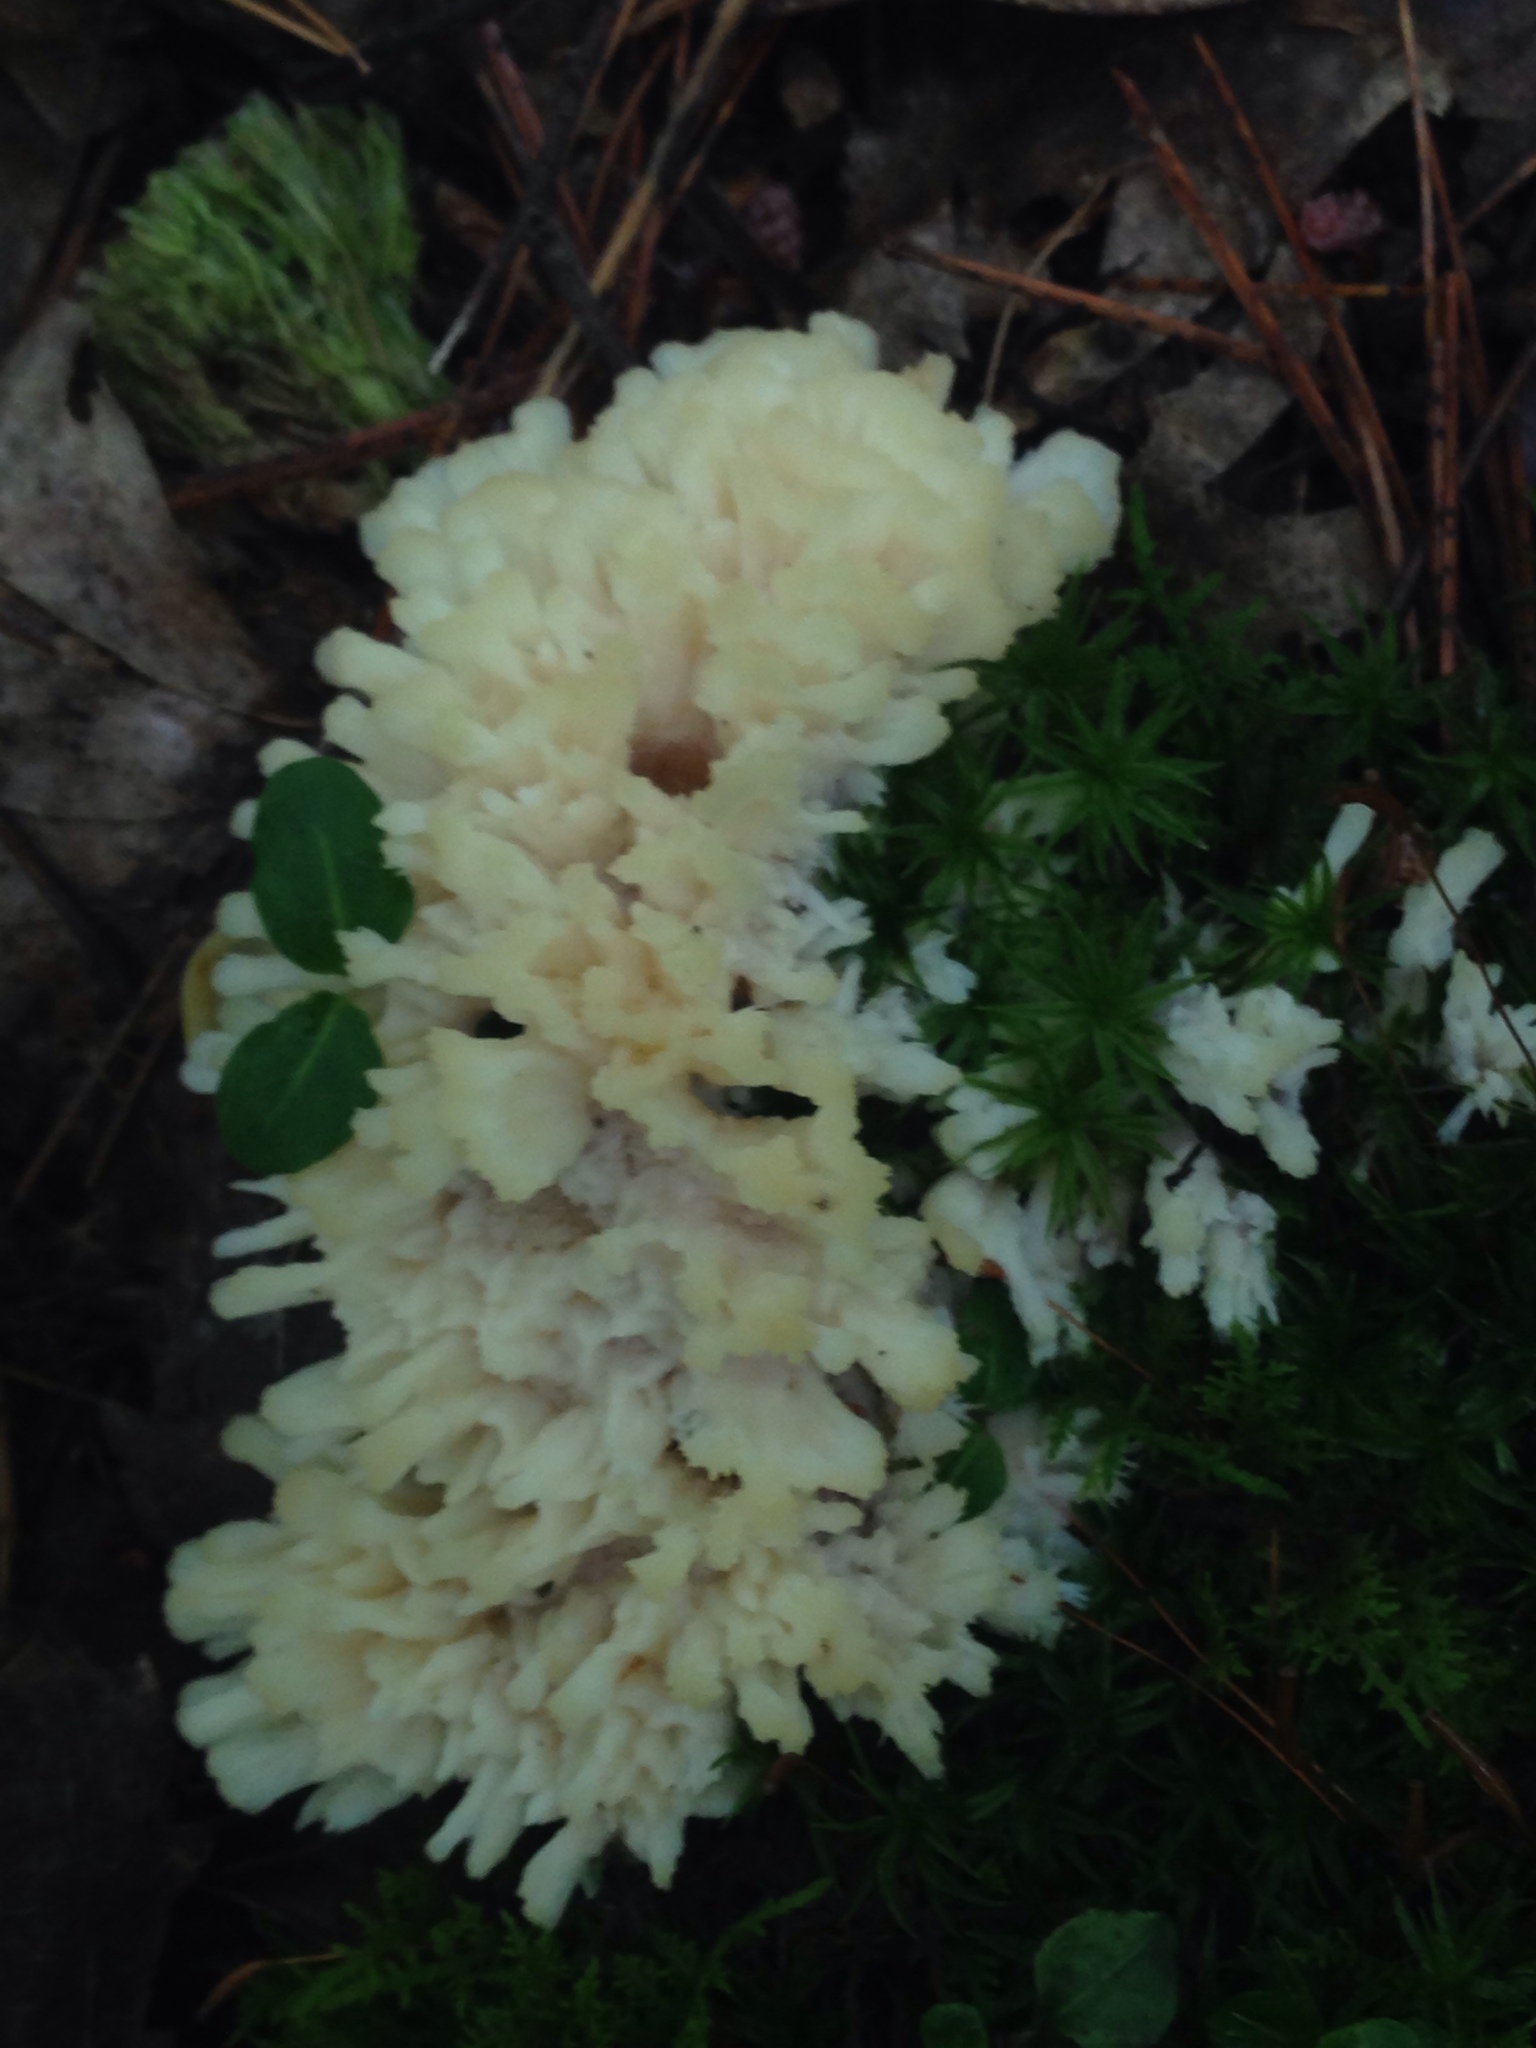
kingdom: Fungi
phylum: Basidiomycota
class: Agaricomycetes
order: Sebacinales
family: Sebacinaceae
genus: Sebacina
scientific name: Sebacina schweinitzii
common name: Jellied false coral fungus
